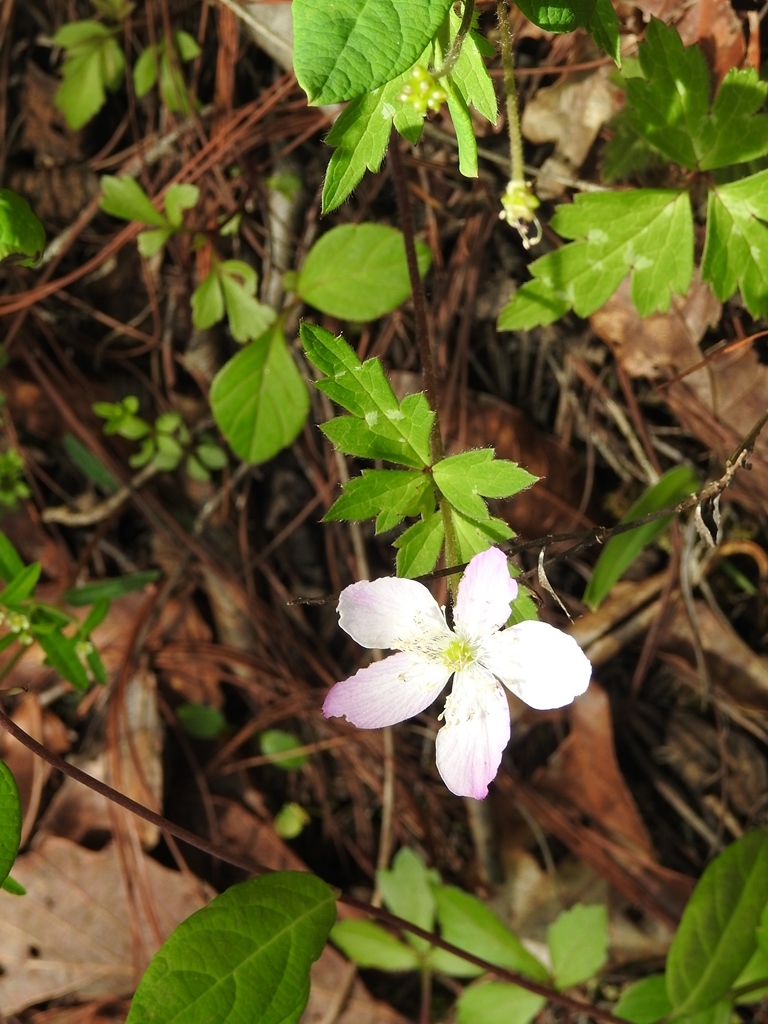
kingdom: Plantae
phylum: Tracheophyta
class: Magnoliopsida
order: Ranunculales
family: Ranunculaceae
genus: Knowltonia
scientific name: Knowltonia mexicana
